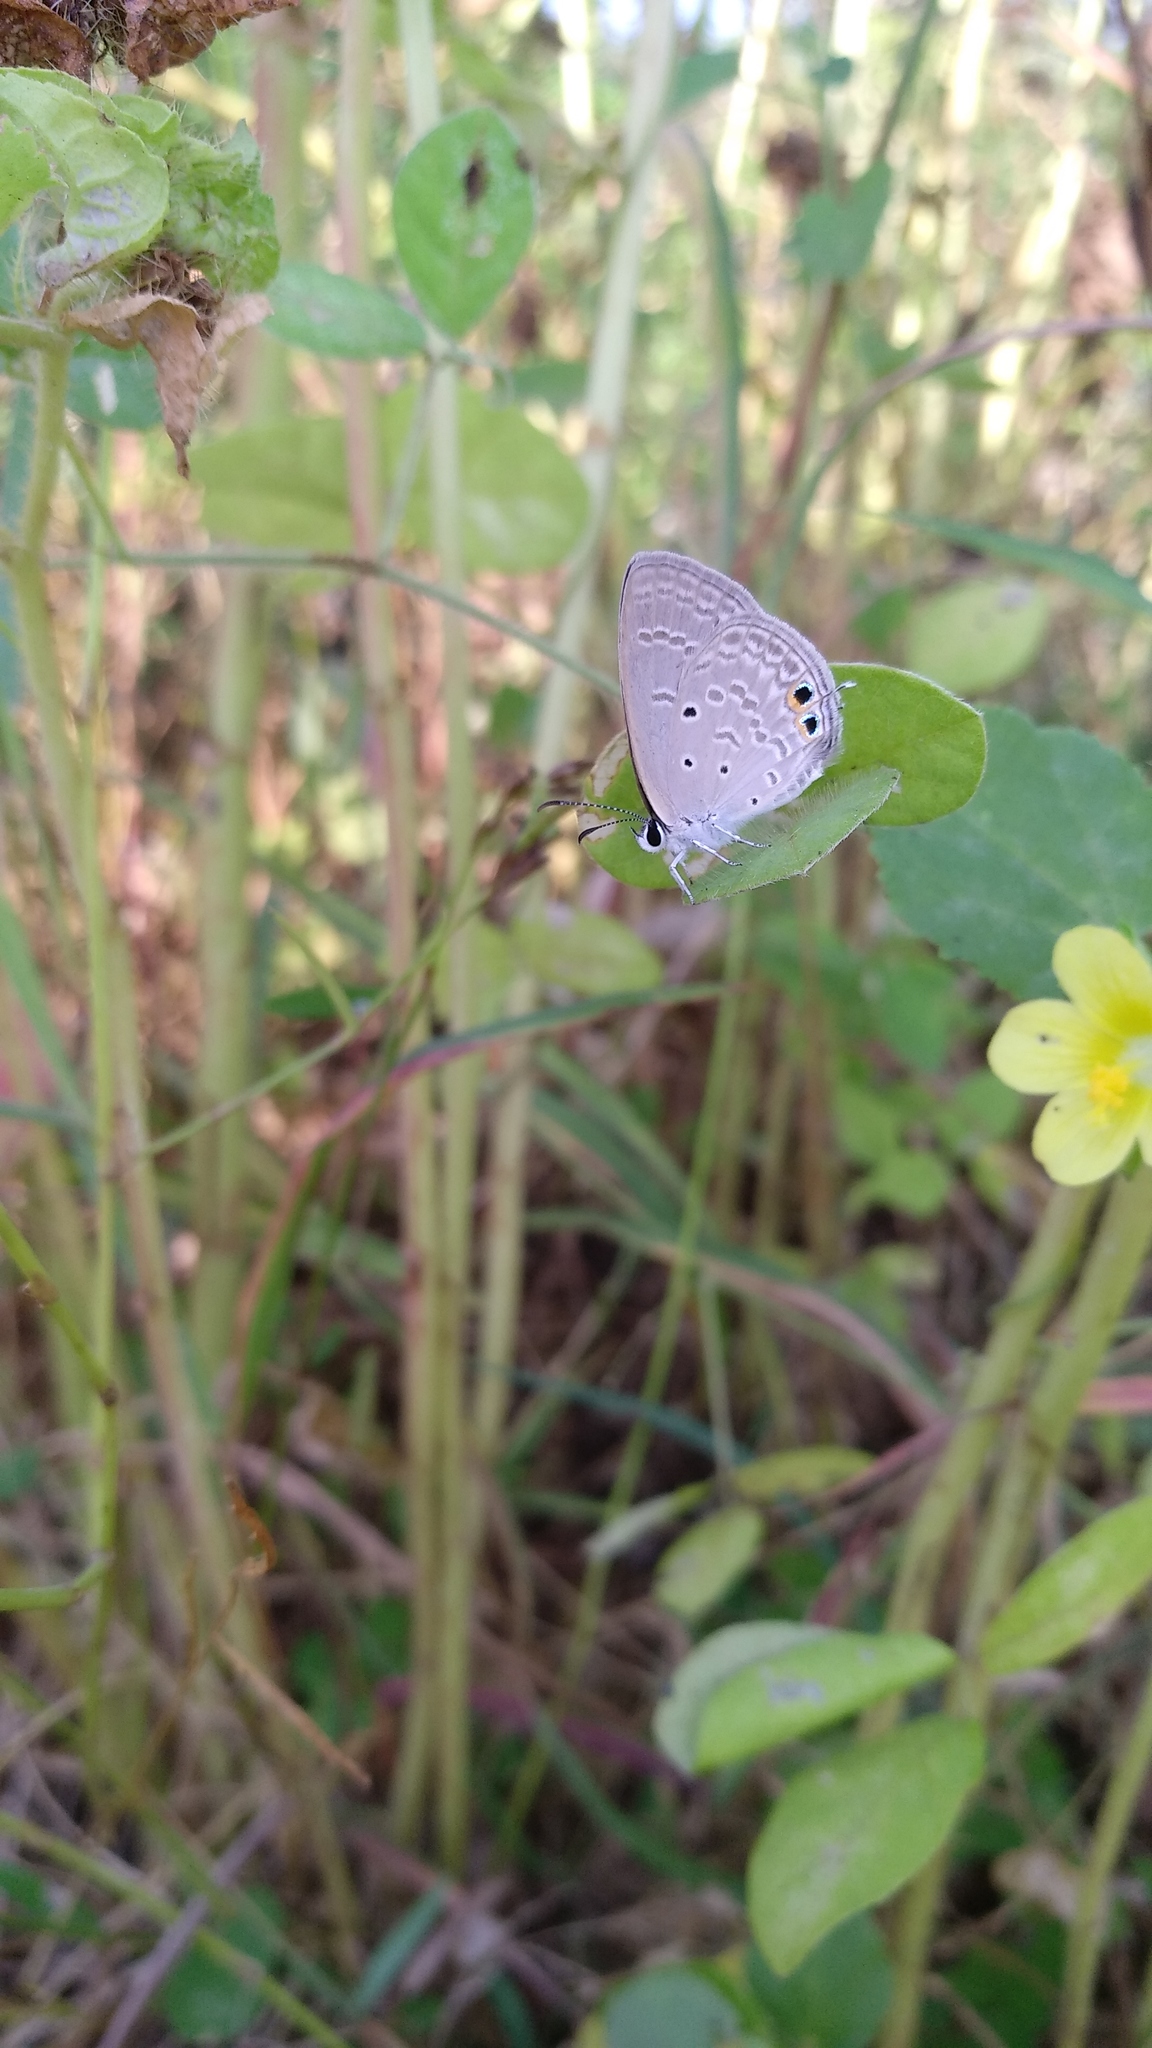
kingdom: Animalia
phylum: Arthropoda
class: Insecta
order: Lepidoptera
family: Lycaenidae
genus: Euchrysops
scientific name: Euchrysops cnejus
